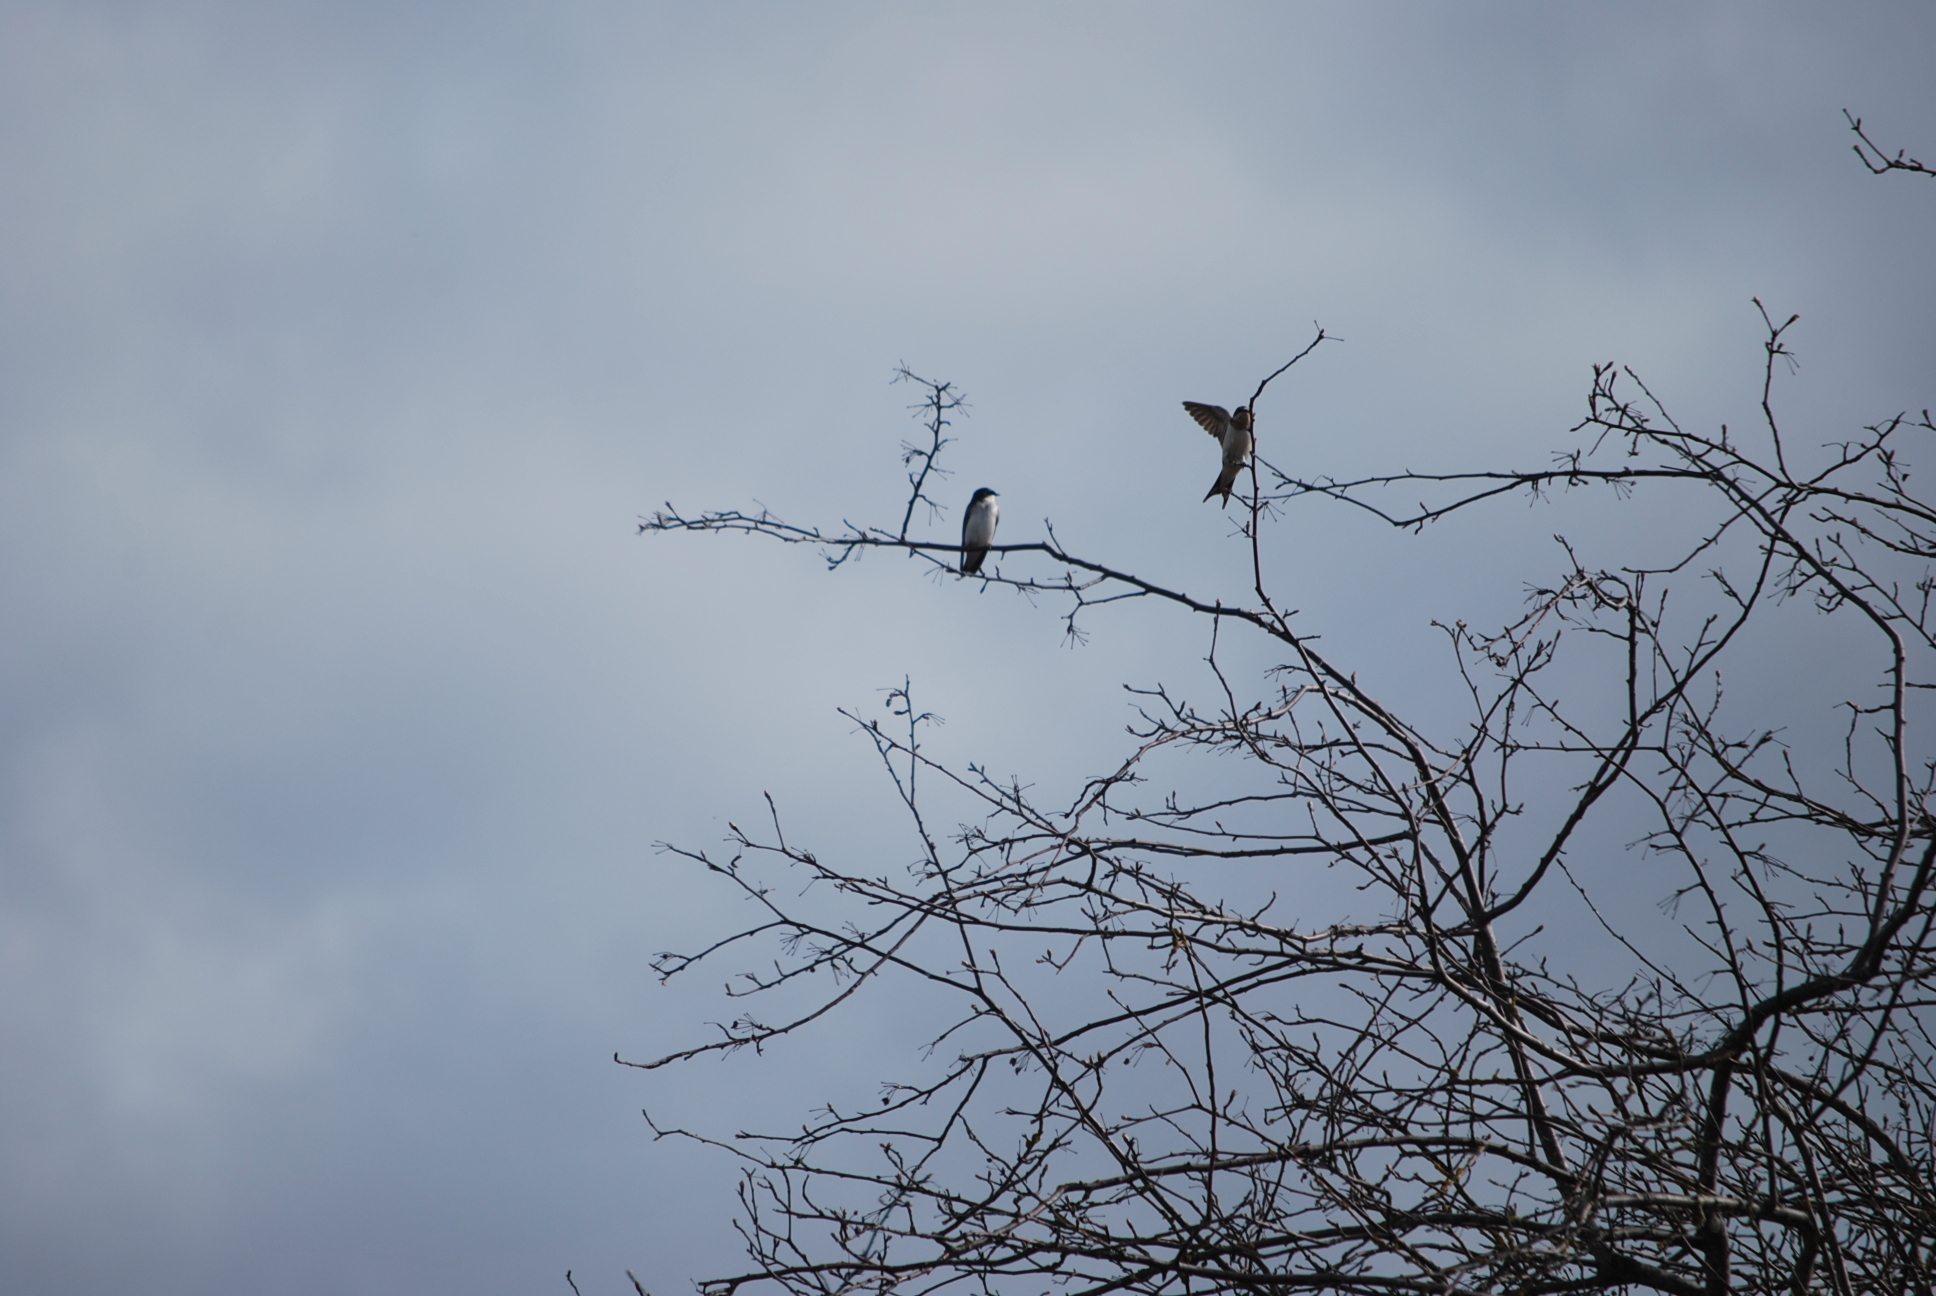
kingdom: Animalia
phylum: Chordata
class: Aves
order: Passeriformes
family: Hirundinidae
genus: Tachycineta
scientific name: Tachycineta bicolor
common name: Tree swallow
